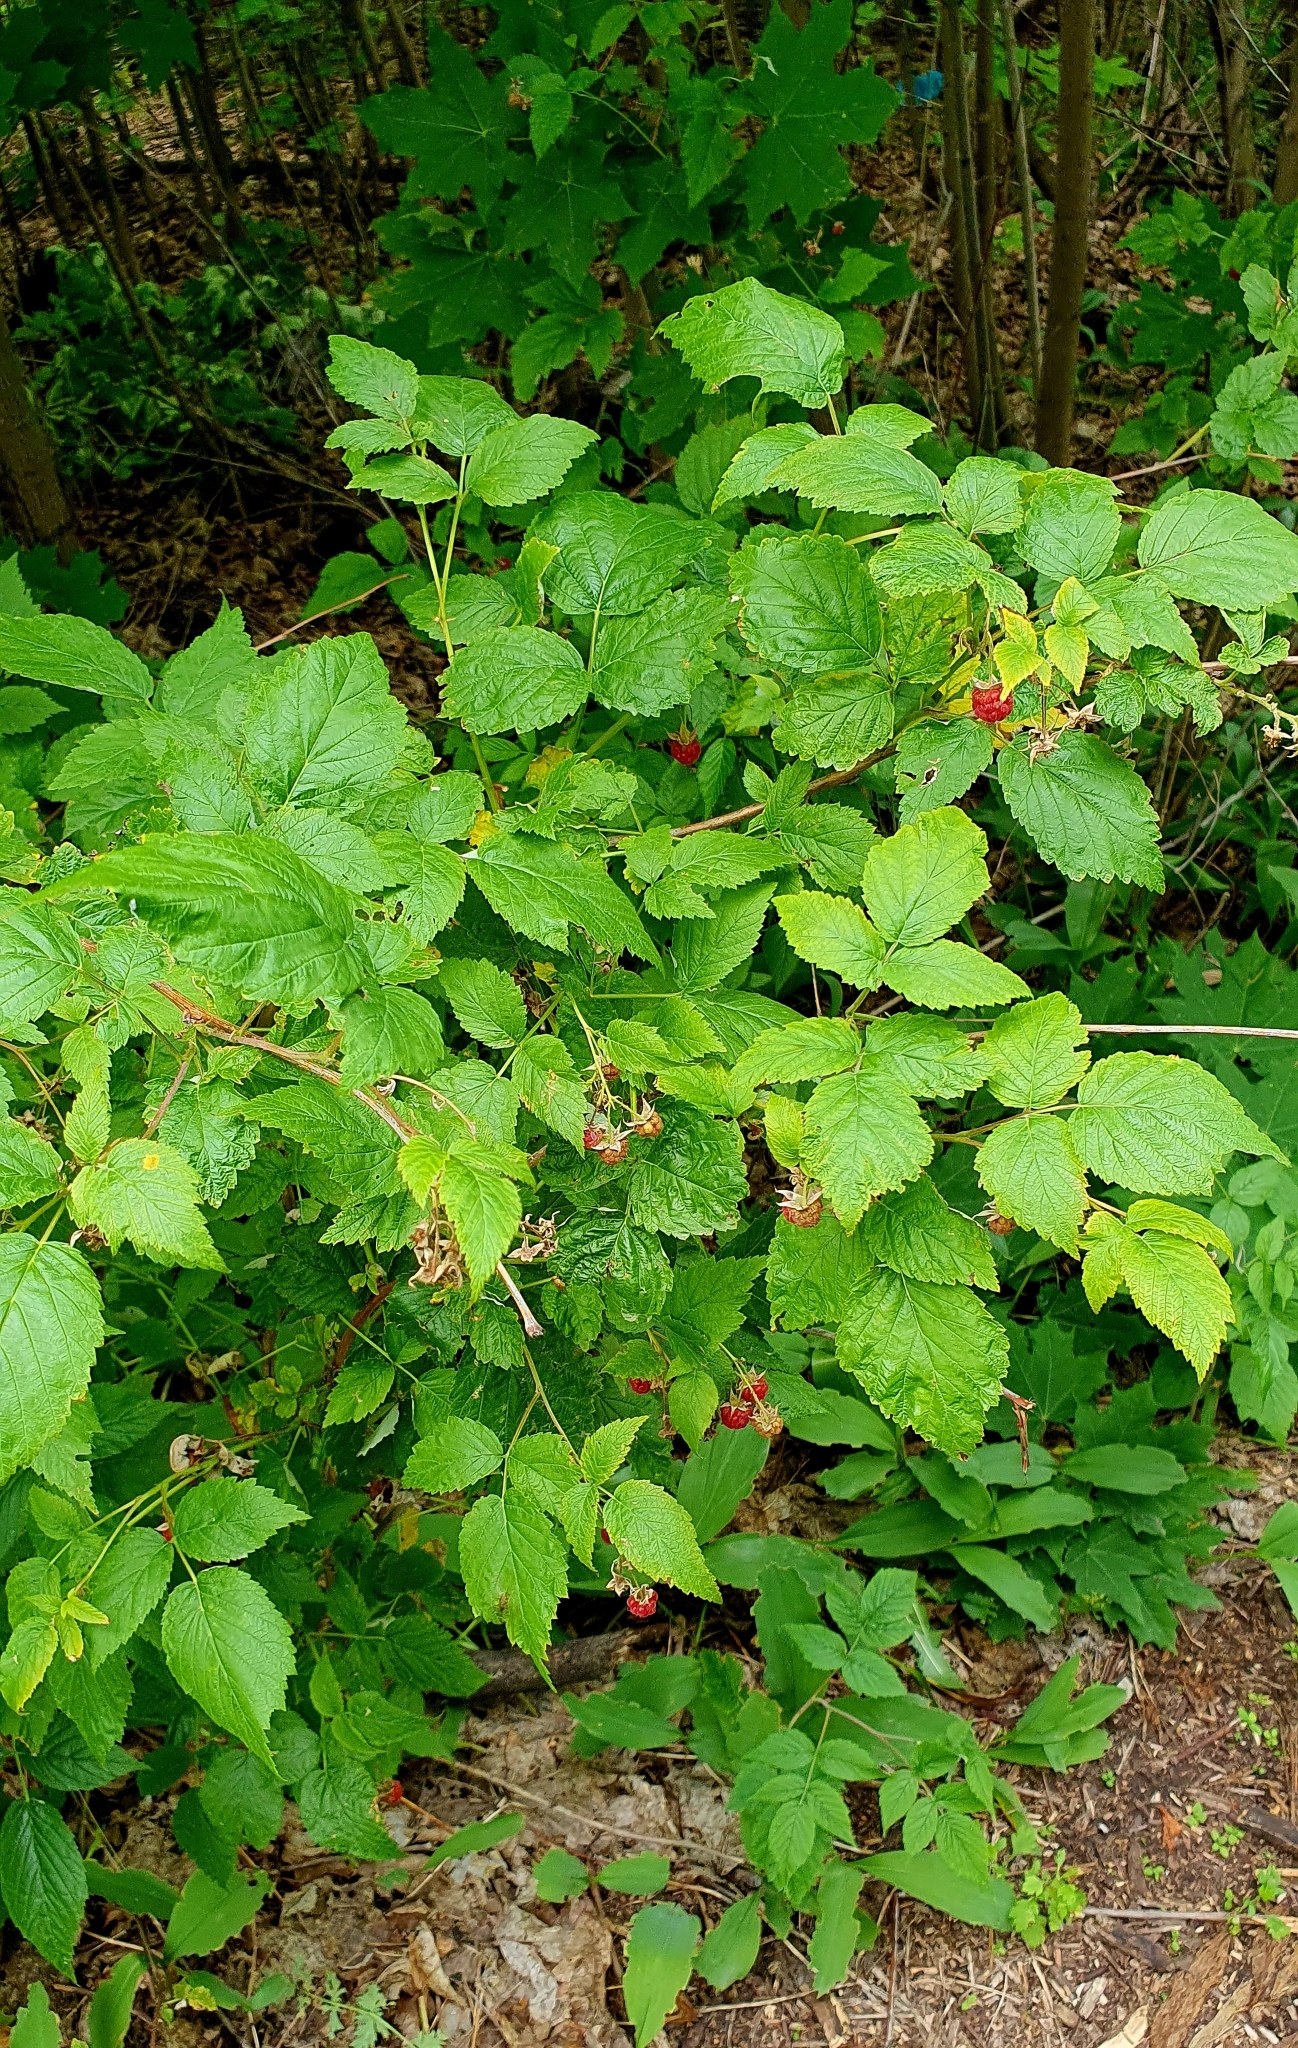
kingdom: Plantae
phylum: Tracheophyta
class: Magnoliopsida
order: Rosales
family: Rosaceae
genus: Rubus
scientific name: Rubus idaeus
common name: Raspberry
